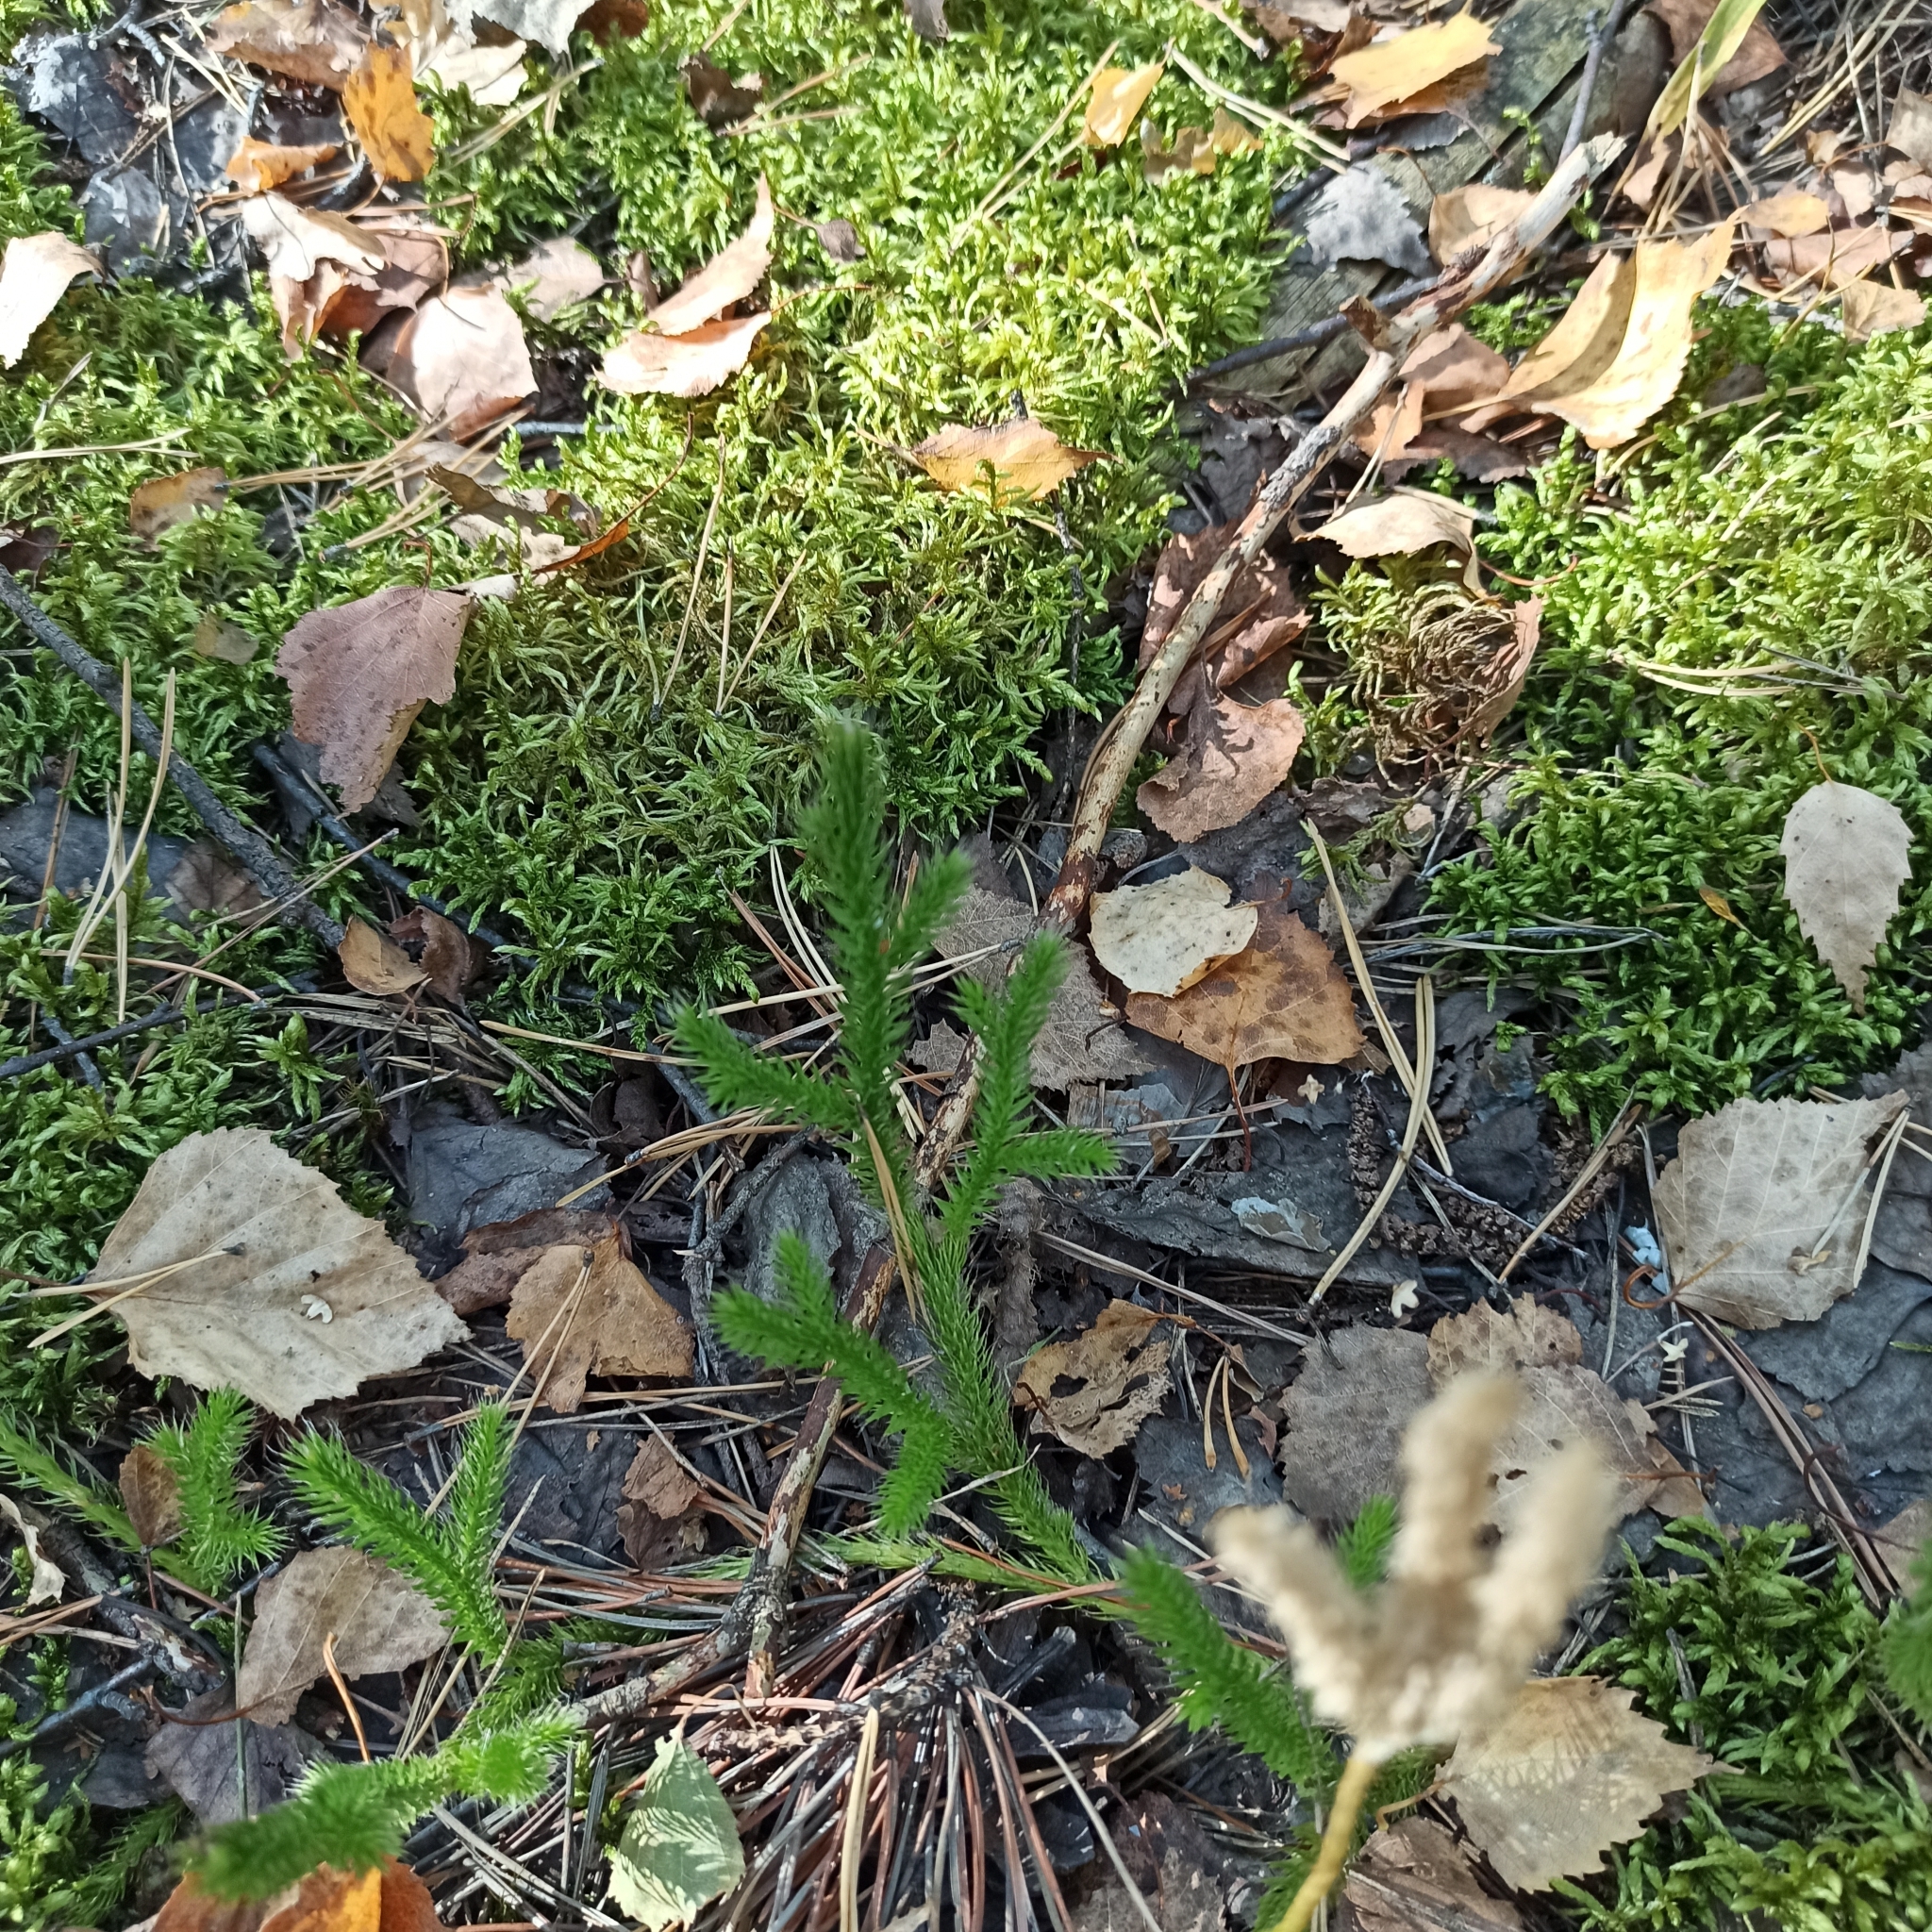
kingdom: Plantae
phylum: Tracheophyta
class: Lycopodiopsida
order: Lycopodiales
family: Lycopodiaceae
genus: Lycopodium
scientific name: Lycopodium clavatum
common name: Stag's-horn clubmoss
